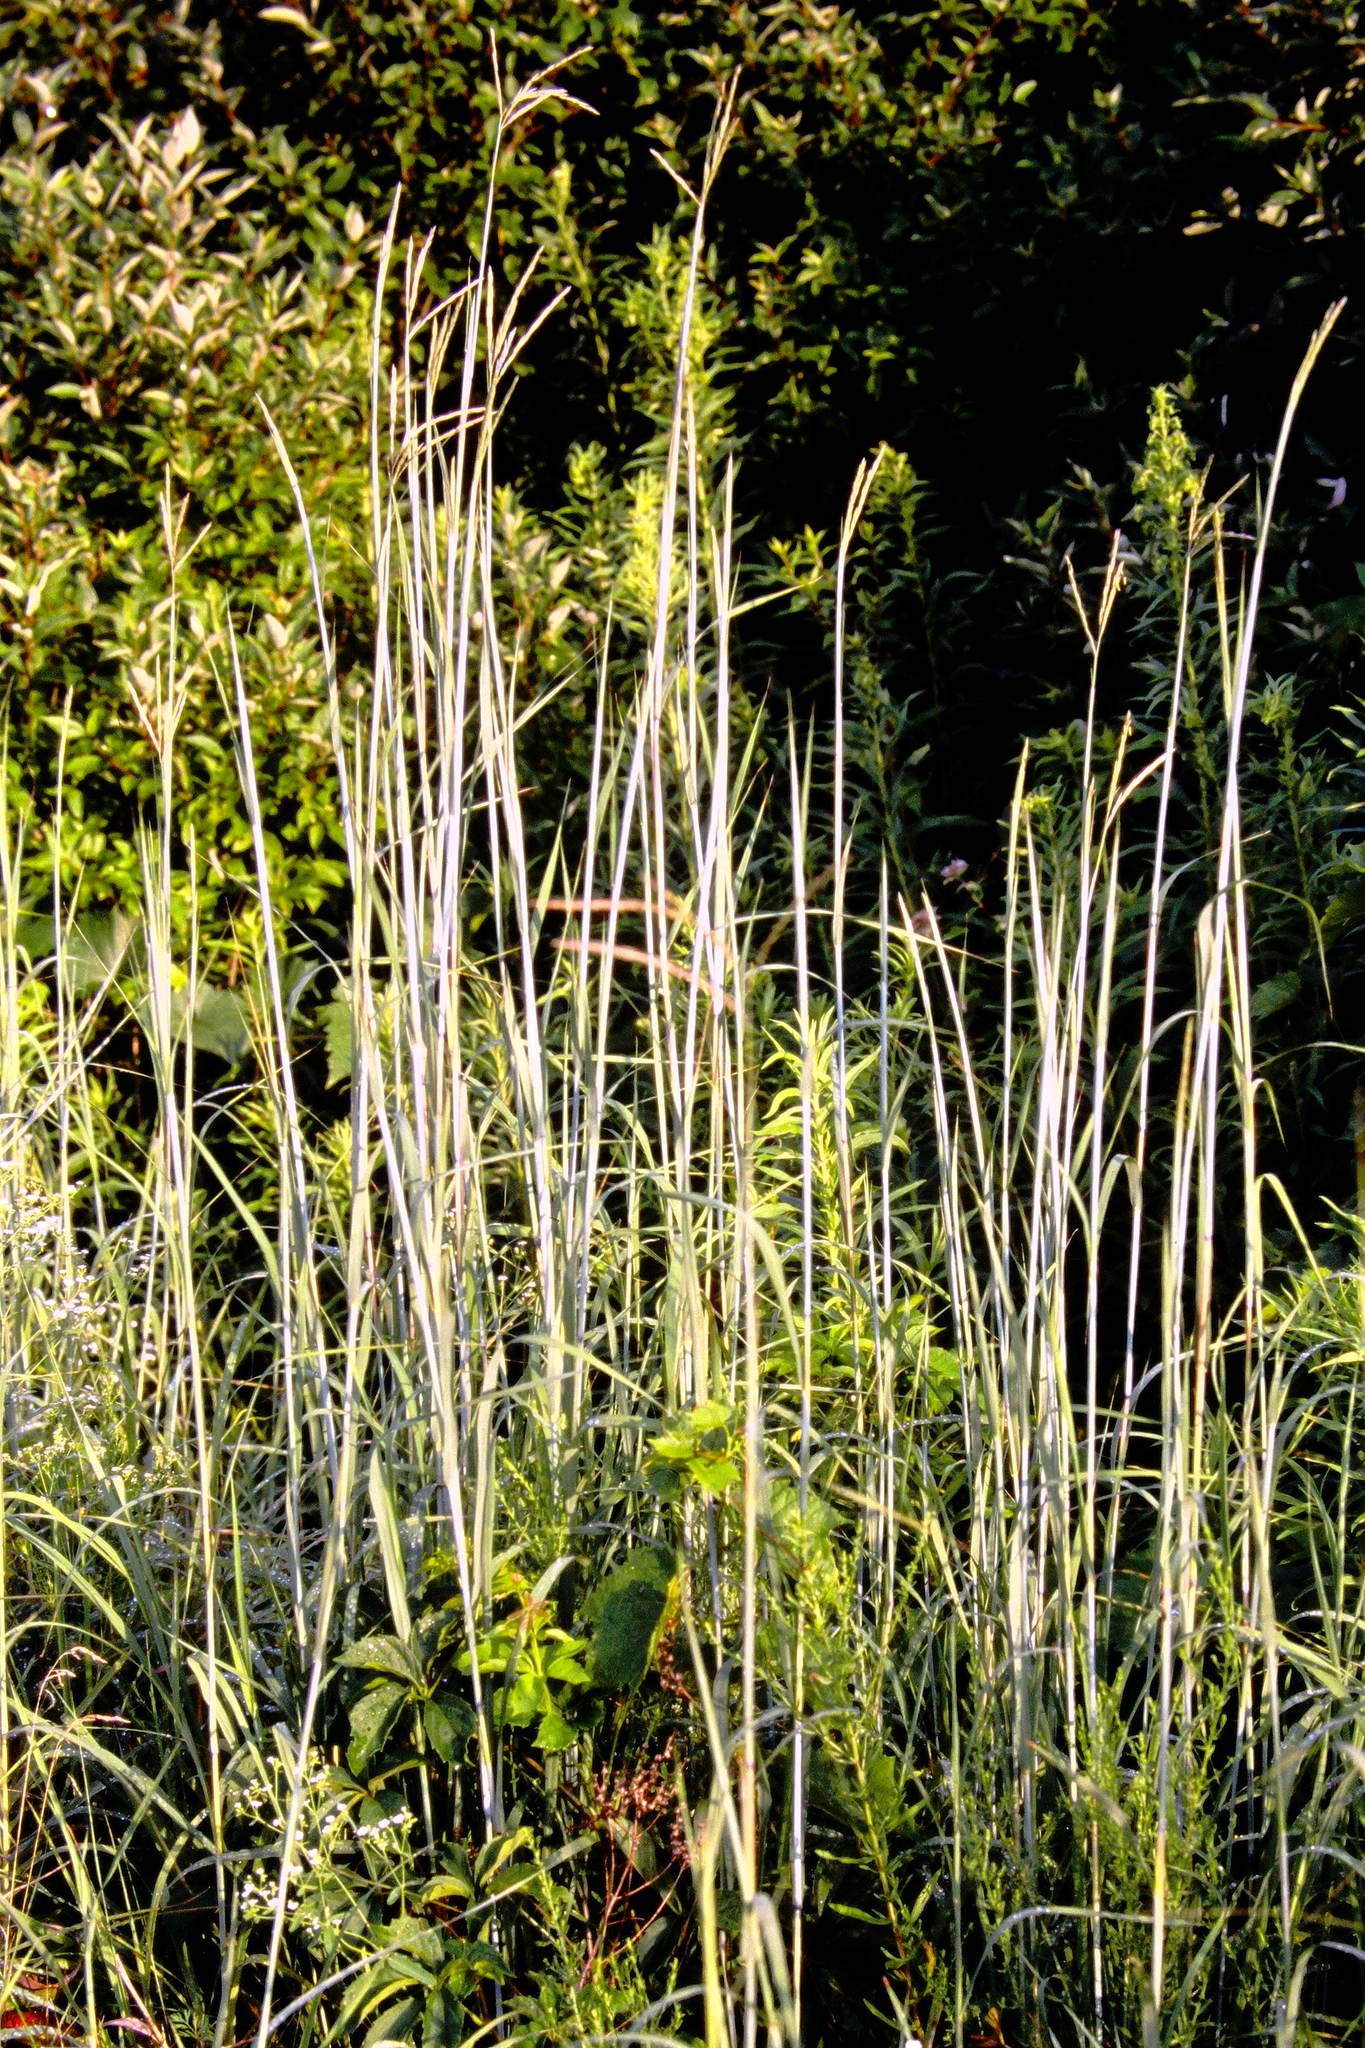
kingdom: Plantae
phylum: Tracheophyta
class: Liliopsida
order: Poales
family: Poaceae
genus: Andropogon
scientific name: Andropogon gerardi
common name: Big bluestem
